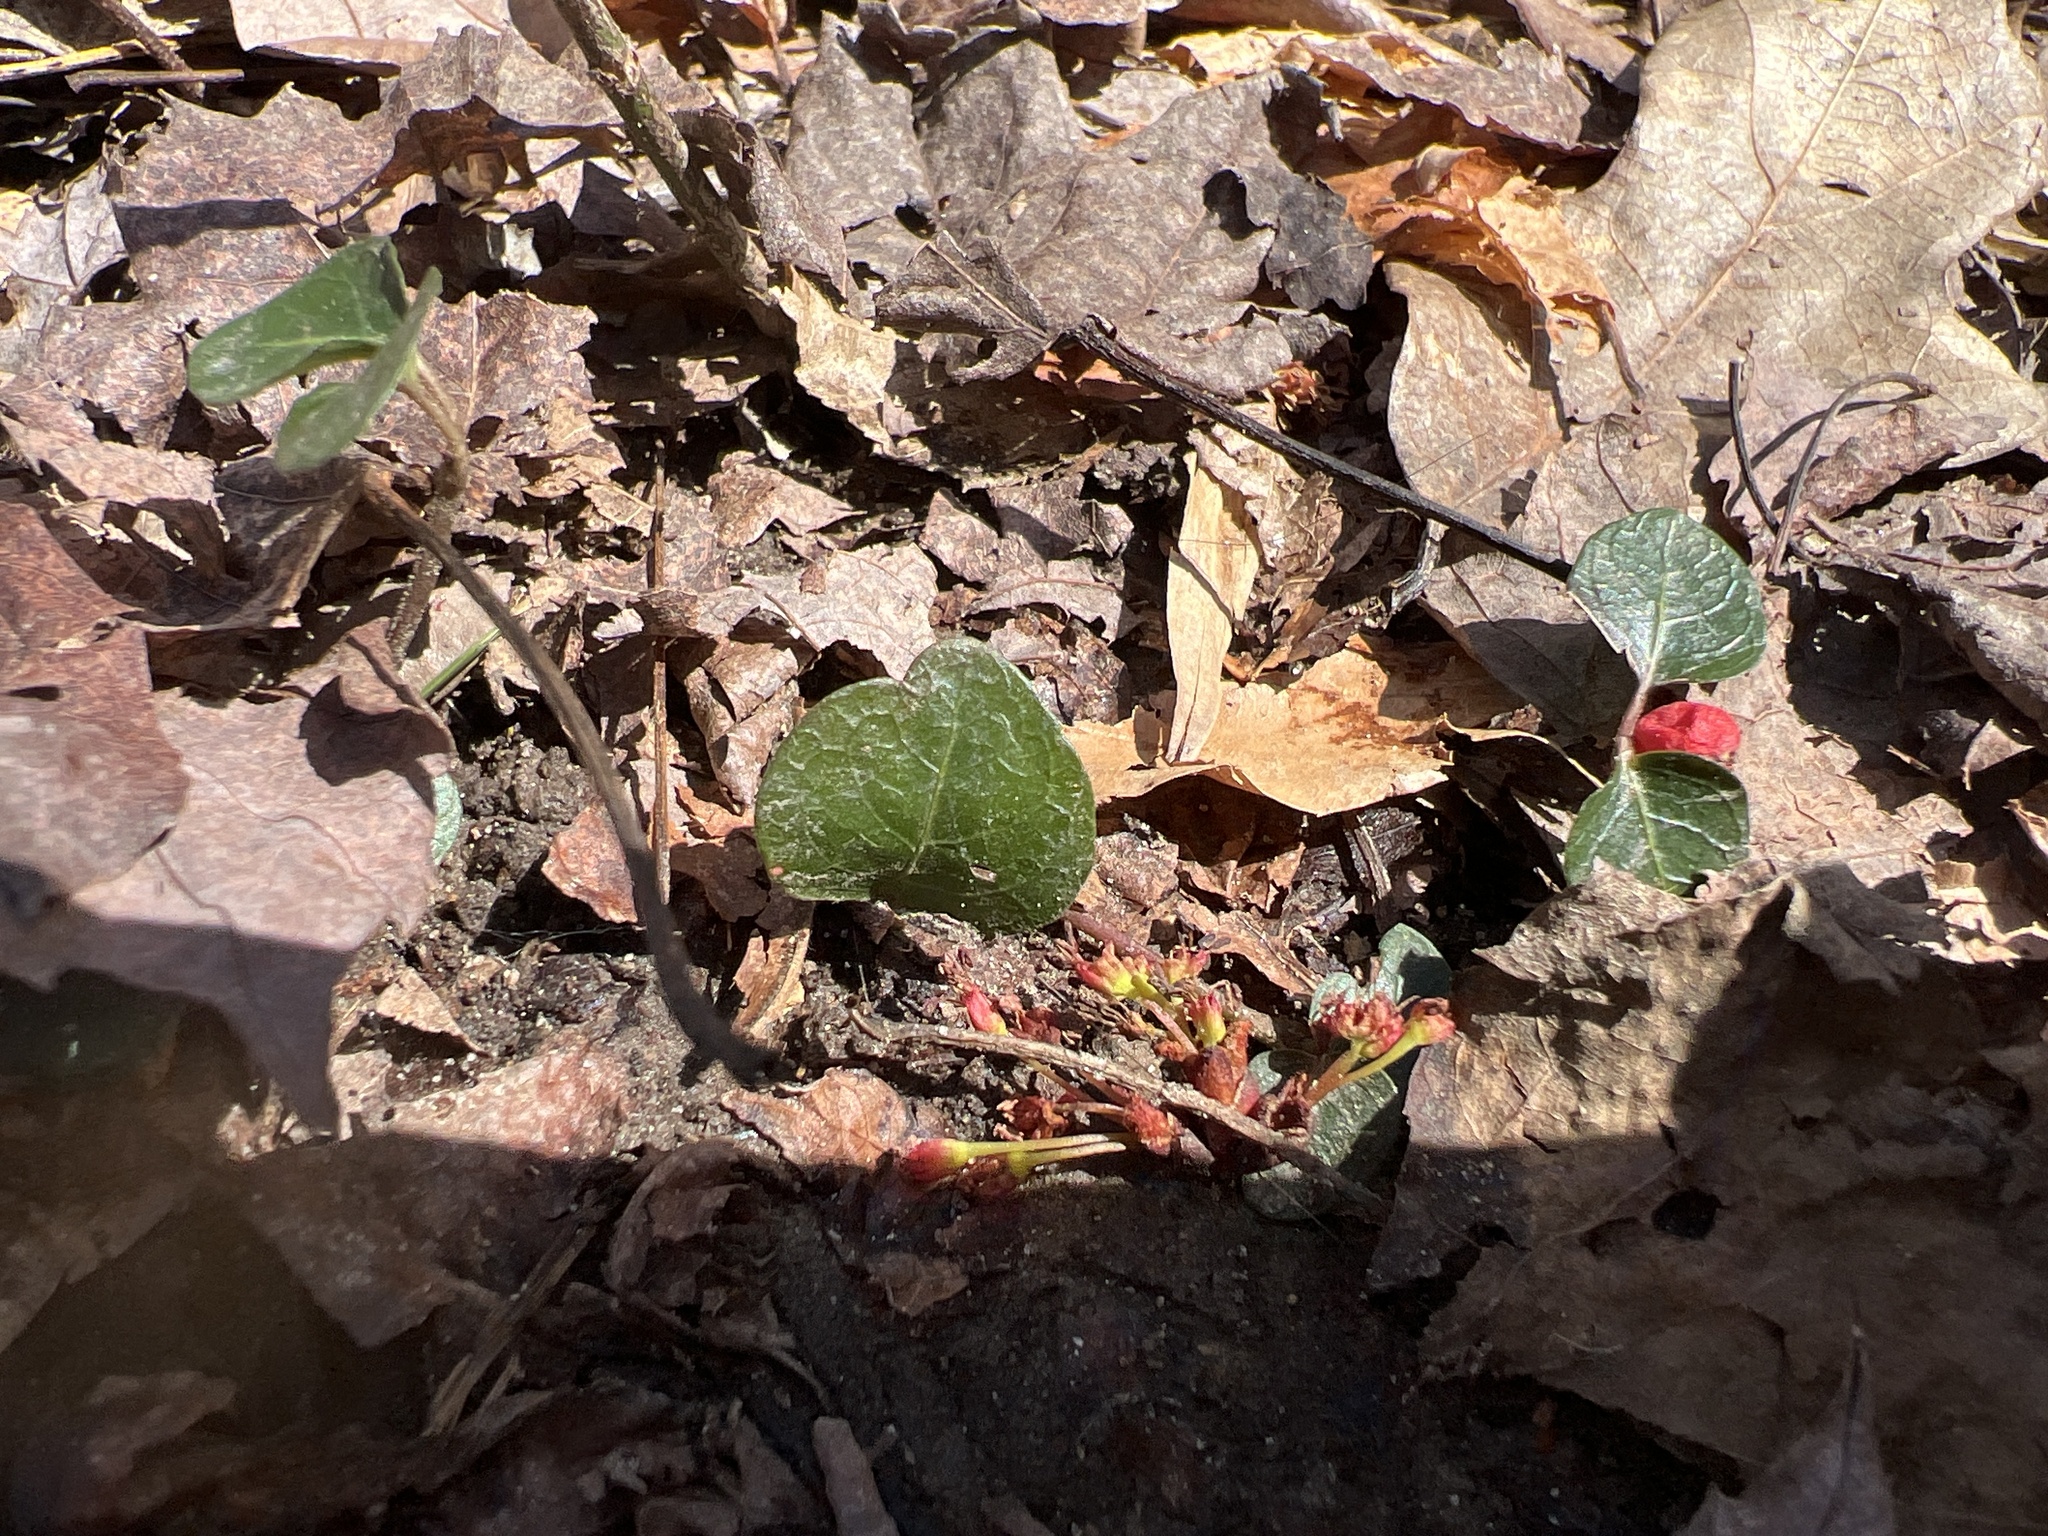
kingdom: Plantae
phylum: Tracheophyta
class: Magnoliopsida
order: Gentianales
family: Rubiaceae
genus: Mitchella
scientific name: Mitchella repens
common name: Partridge-berry
